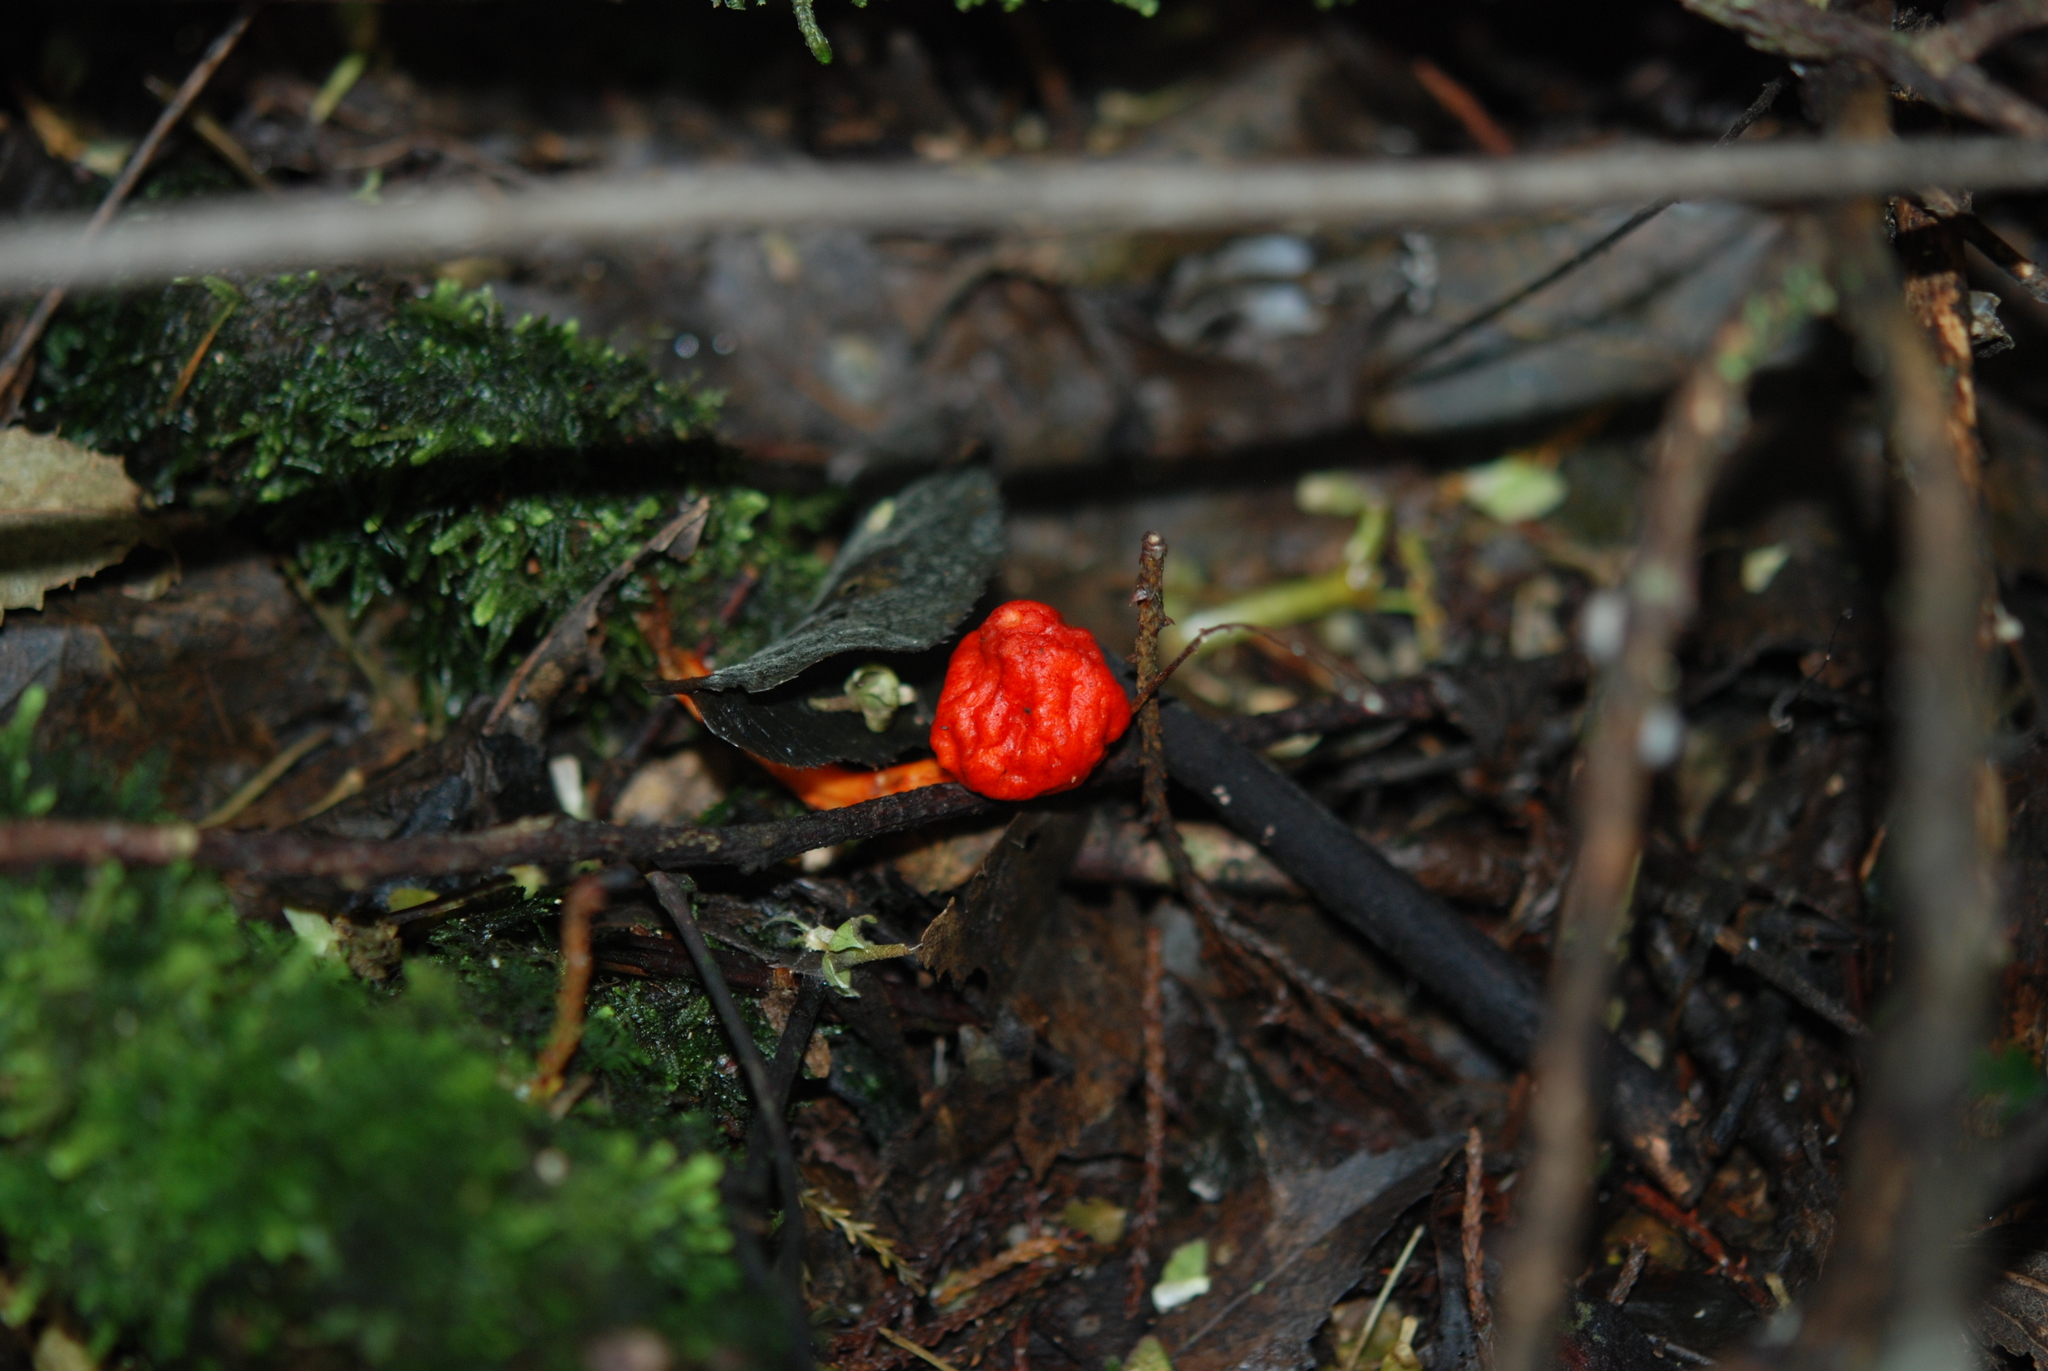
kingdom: Fungi
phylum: Basidiomycota
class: Agaricomycetes
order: Agaricales
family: Strophariaceae
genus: Leratiomyces
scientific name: Leratiomyces erythrocephalus
